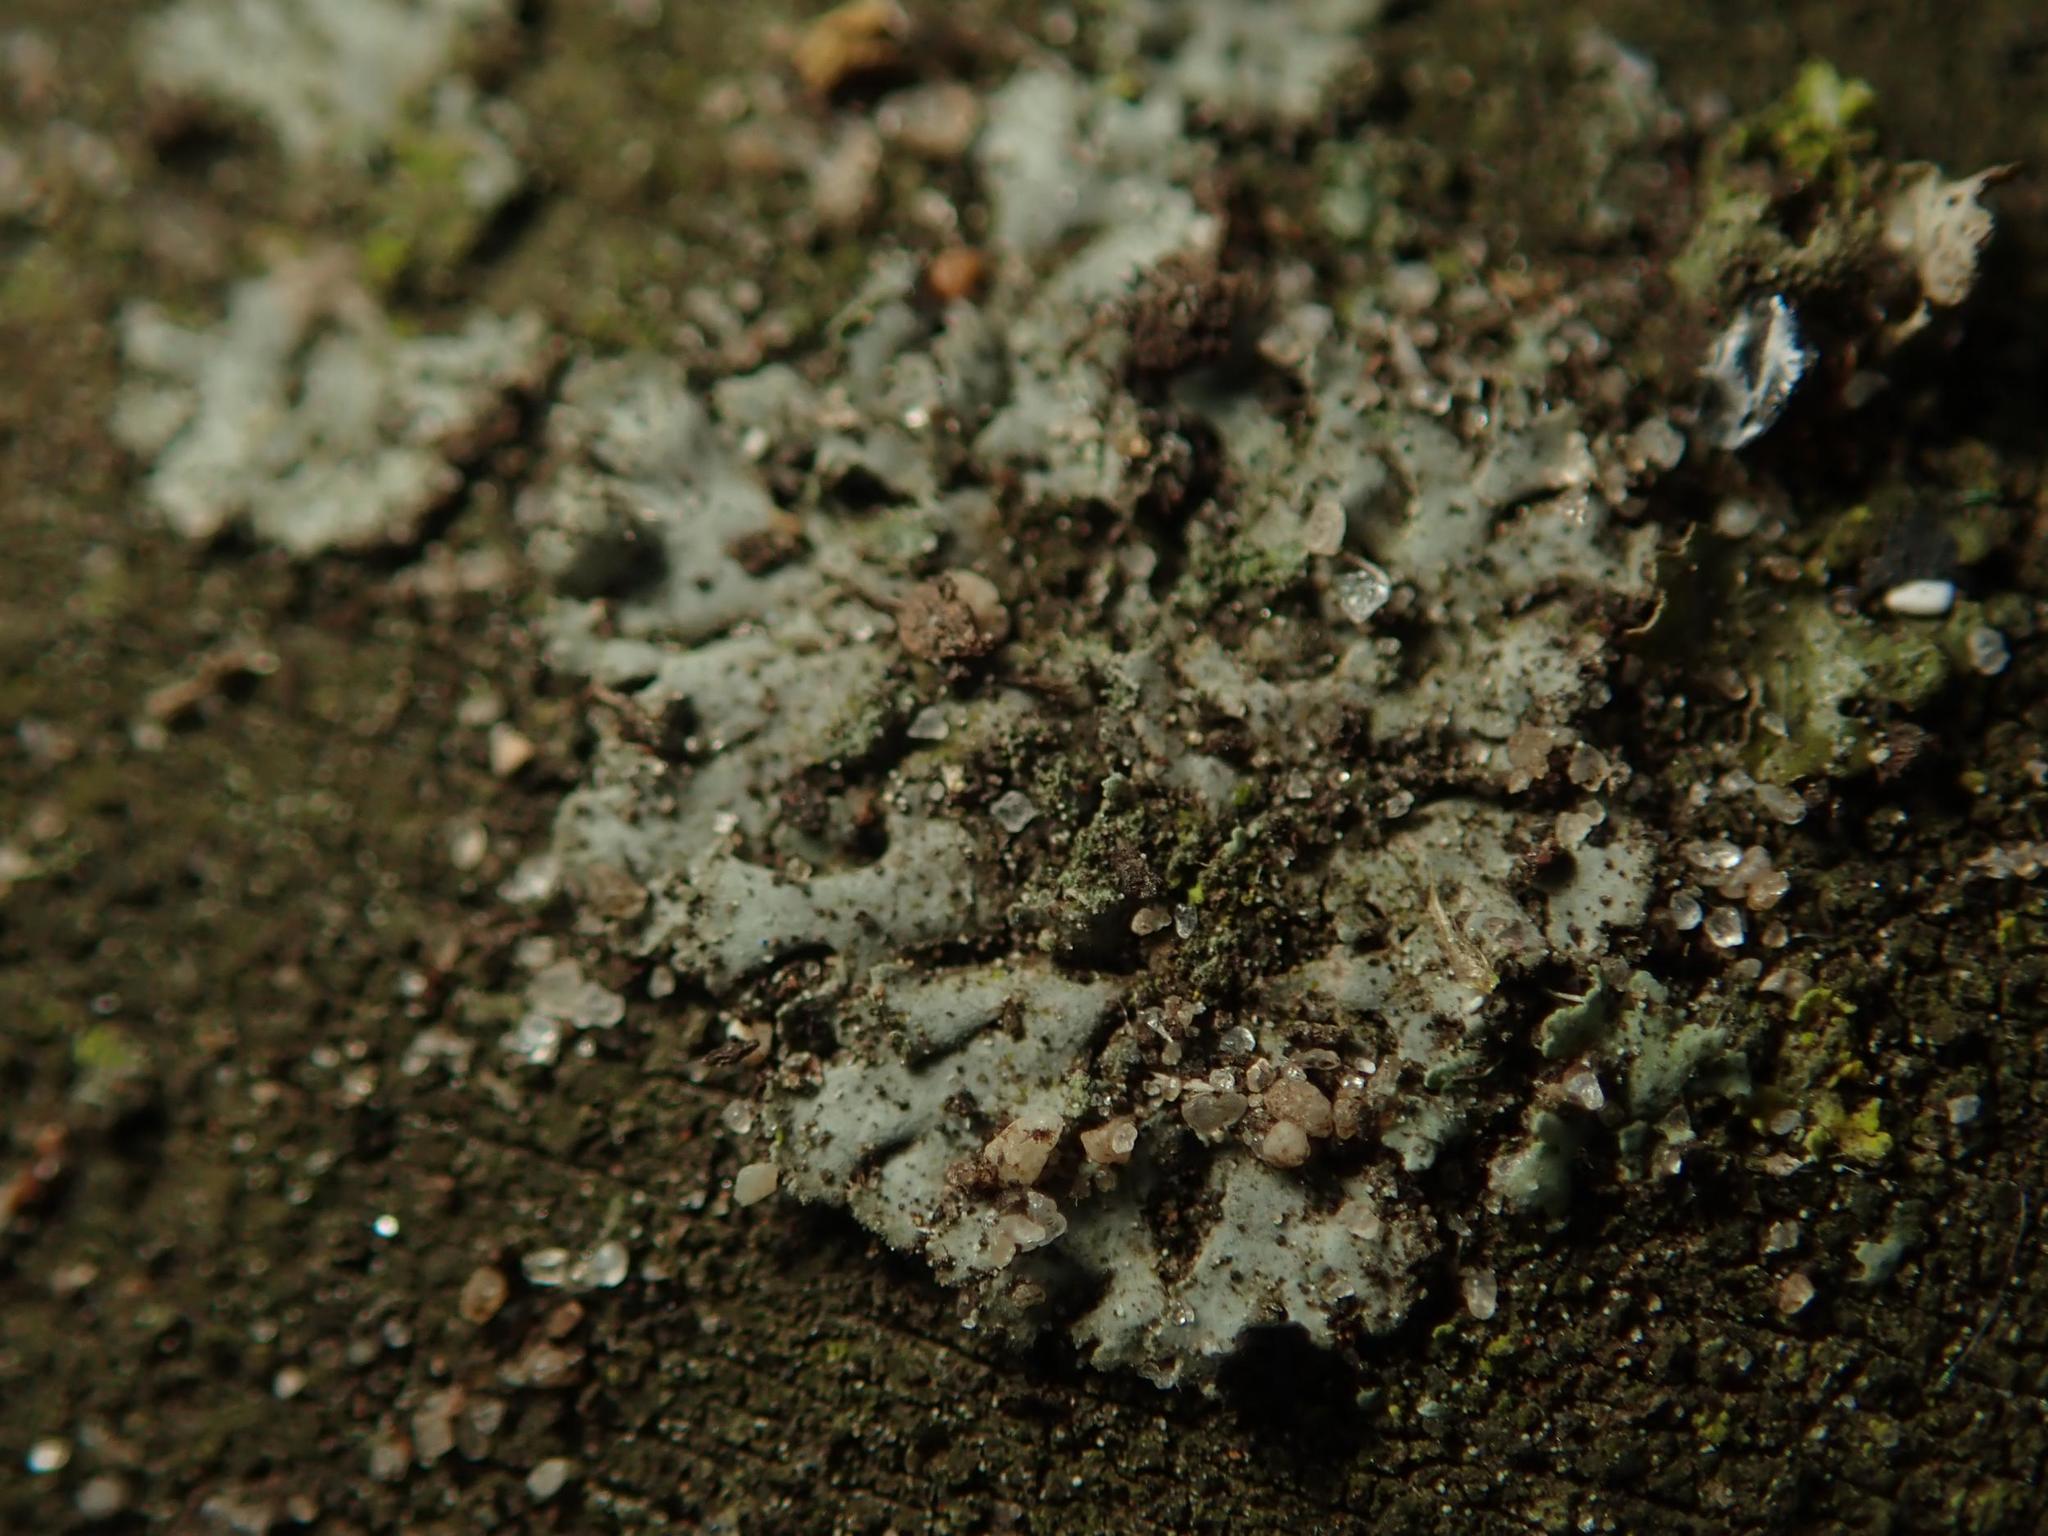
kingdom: Fungi
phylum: Ascomycota
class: Lecanoromycetes
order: Caliciales
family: Physciaceae
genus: Phaeophyscia
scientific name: Phaeophyscia orbicularis
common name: Mealy shadow lichen
